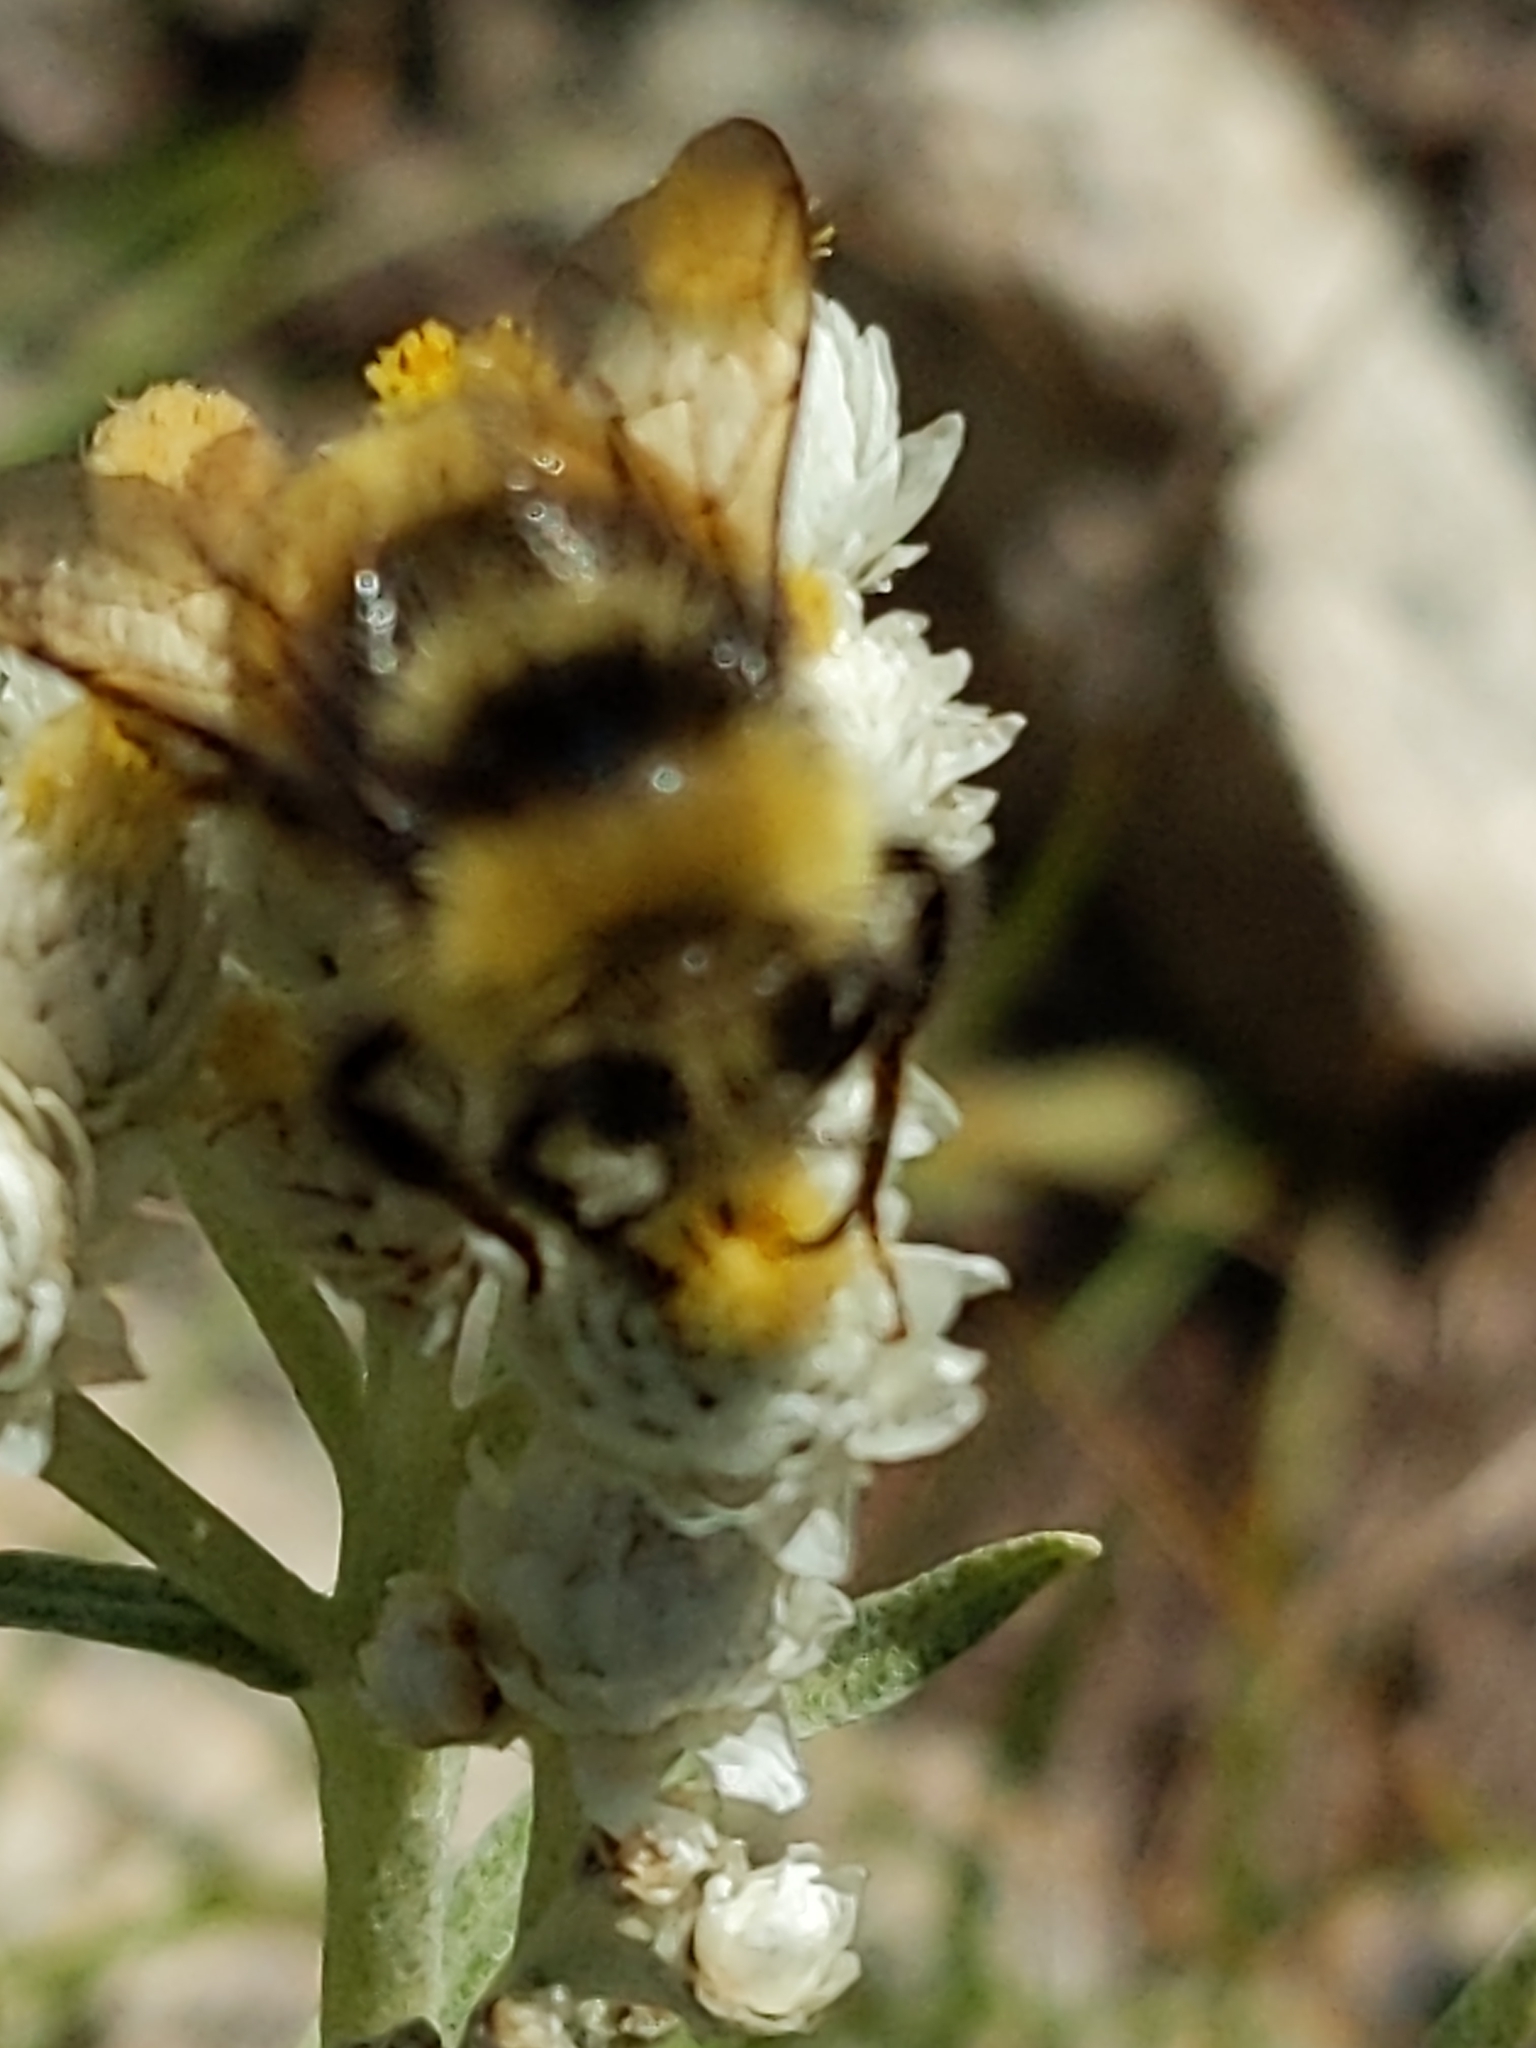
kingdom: Animalia
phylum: Arthropoda
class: Insecta
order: Hymenoptera
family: Apidae
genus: Bombus
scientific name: Bombus occidentalis
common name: Western bumble bee
